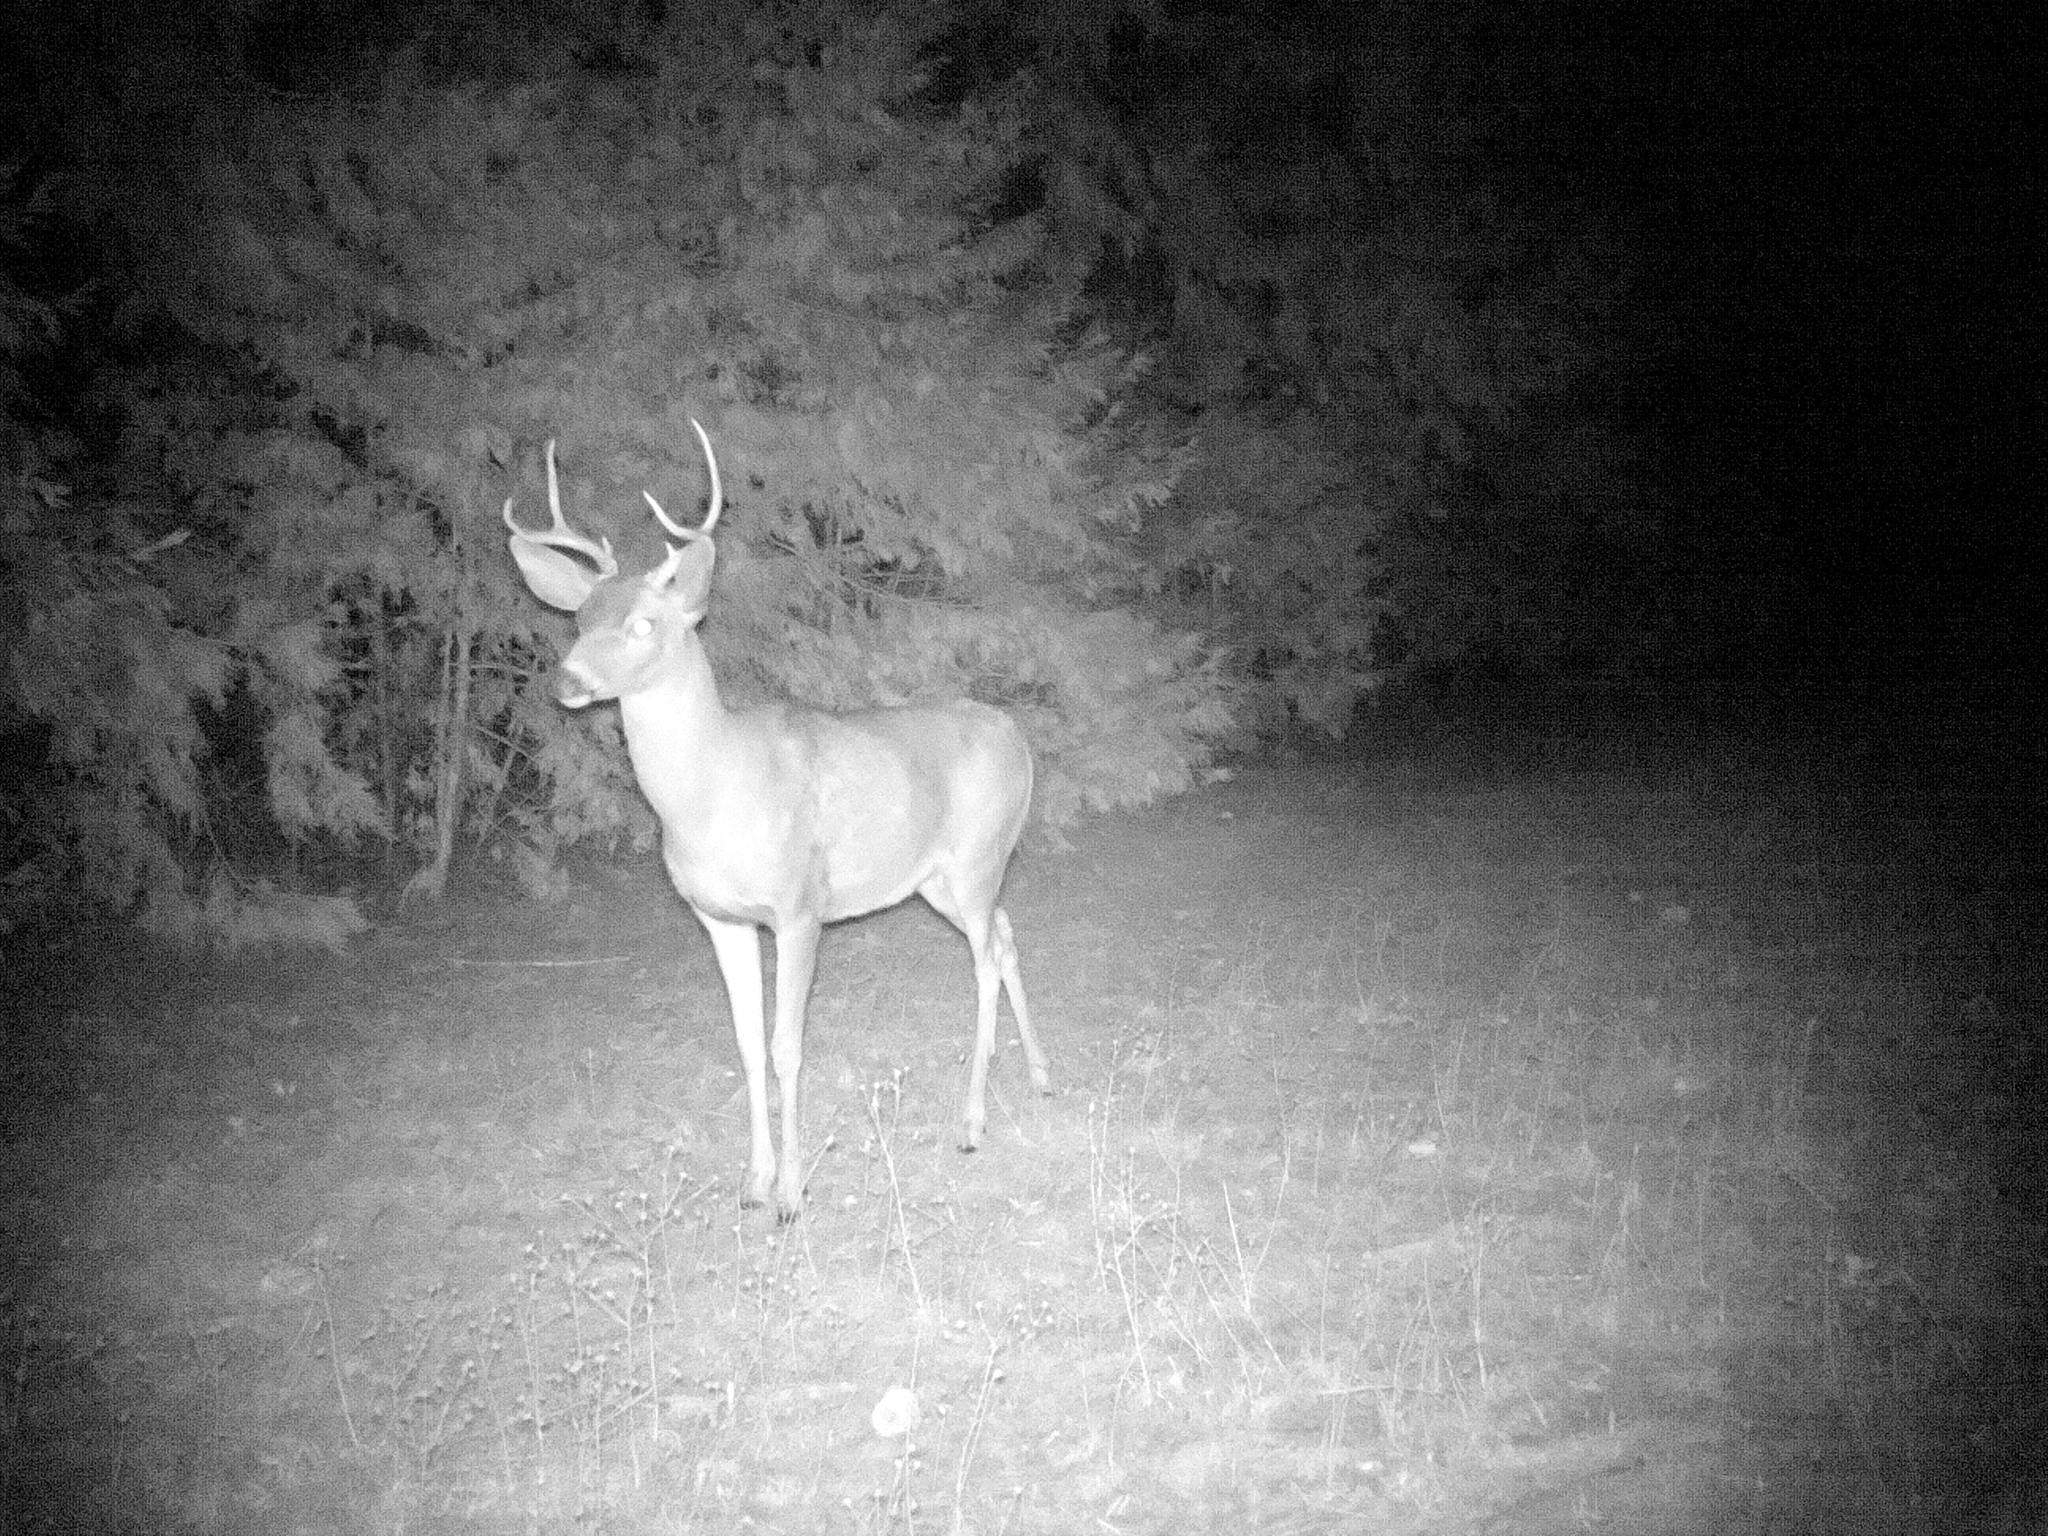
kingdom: Animalia
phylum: Chordata
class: Mammalia
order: Artiodactyla
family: Cervidae
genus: Odocoileus
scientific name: Odocoileus hemionus
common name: Mule deer
